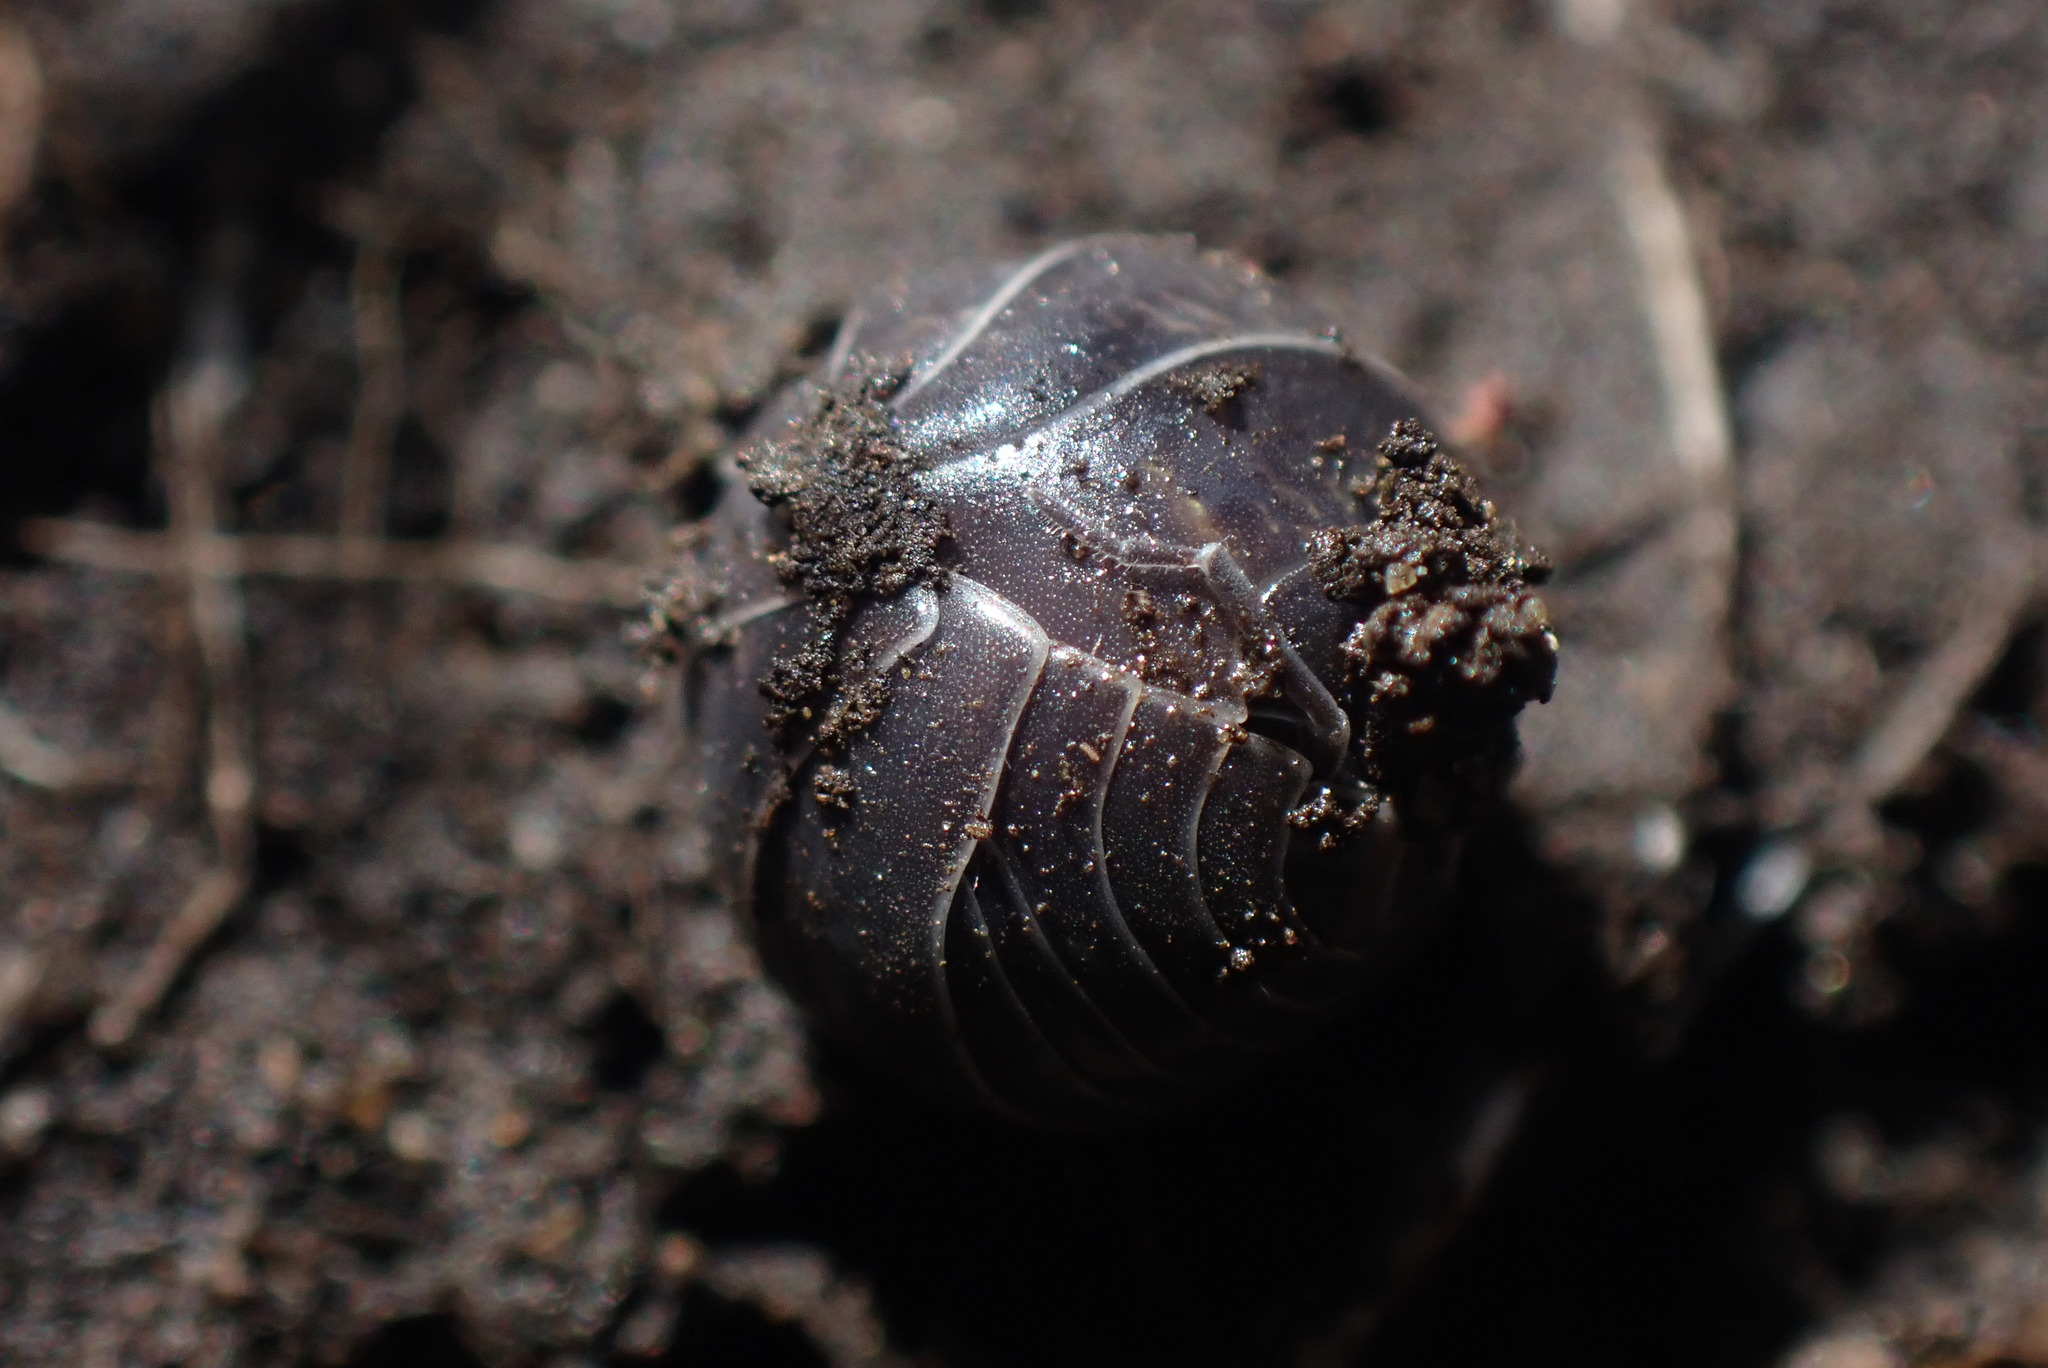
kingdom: Animalia
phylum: Arthropoda
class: Malacostraca
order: Isopoda
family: Armadillidiidae
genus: Armadillidium
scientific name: Armadillidium vulgare
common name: Common pill woodlouse
